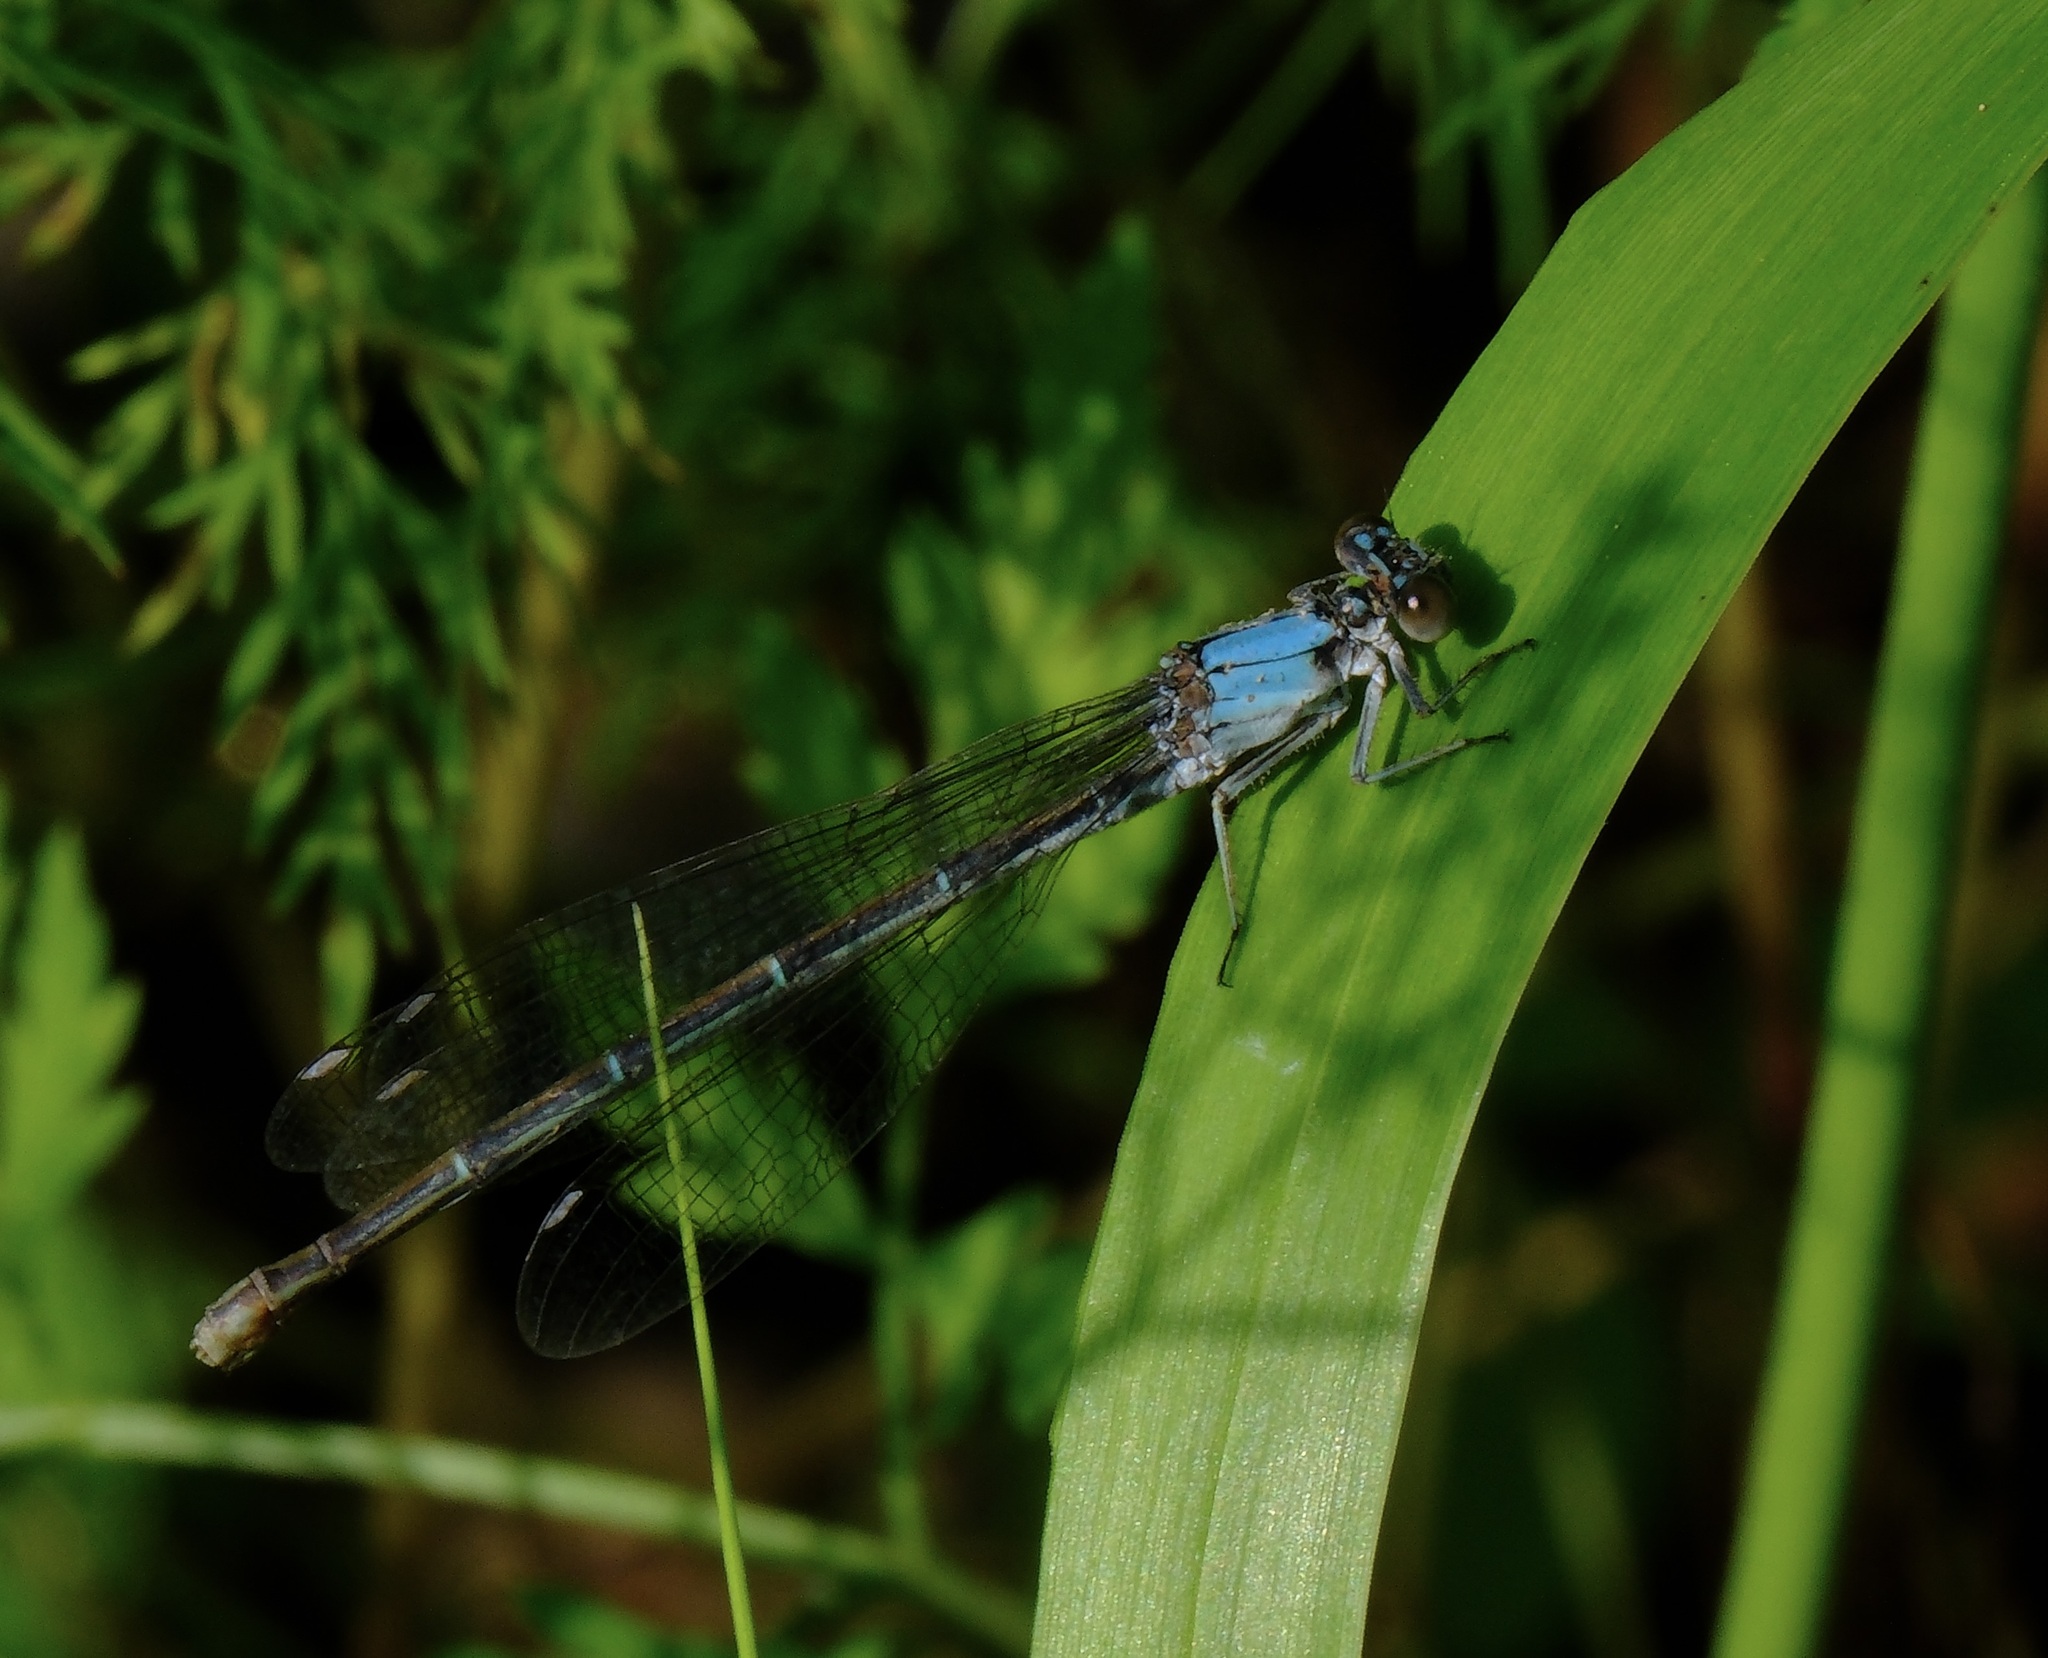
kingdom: Animalia
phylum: Arthropoda
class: Insecta
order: Odonata
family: Coenagrionidae
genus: Argia
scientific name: Argia moesta
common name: Powdered dancer
